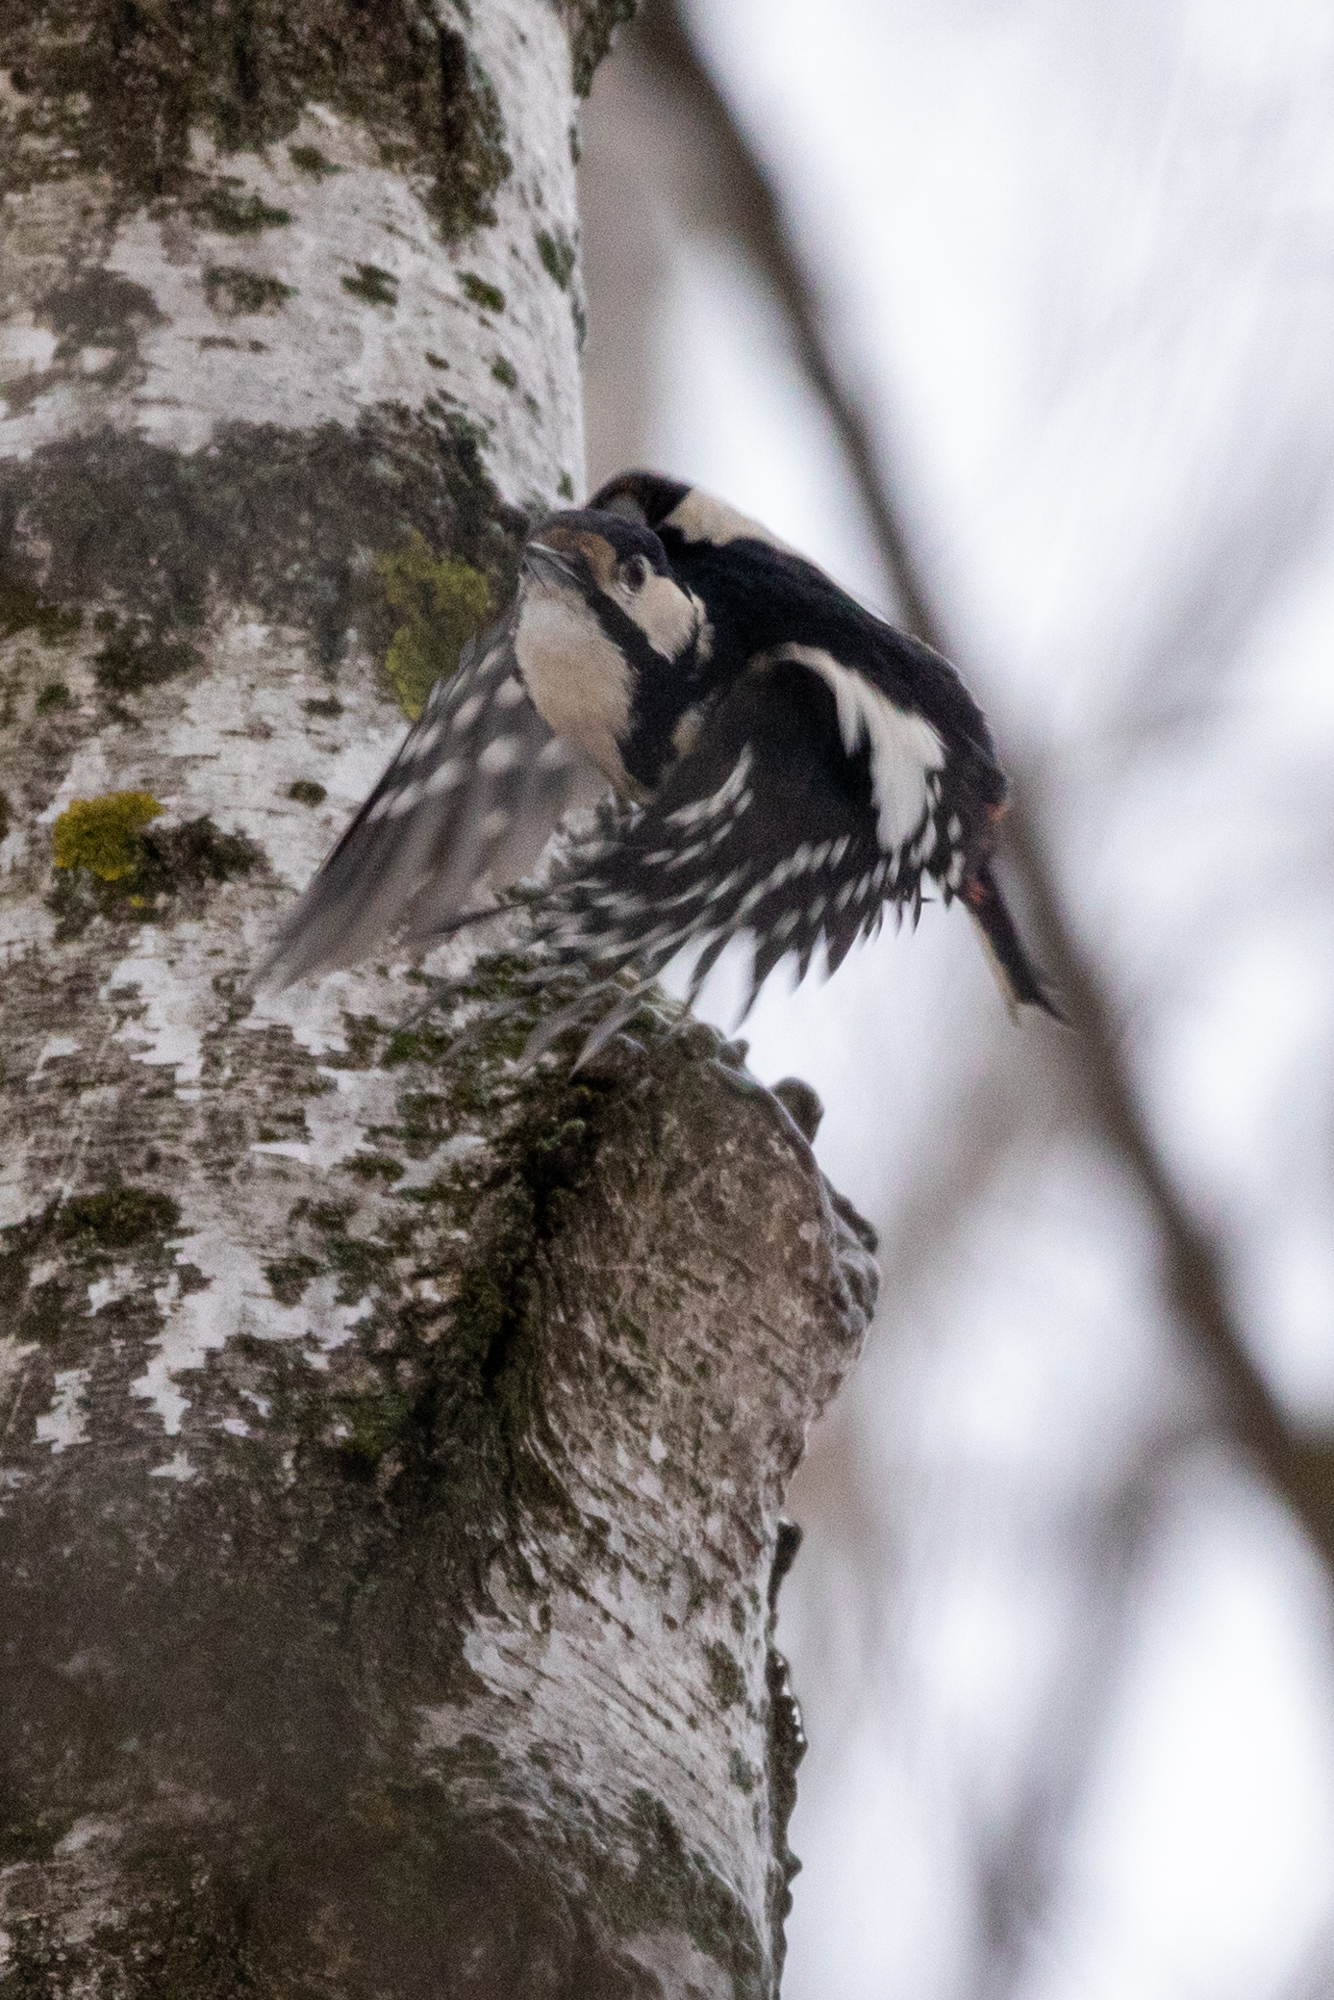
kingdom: Animalia
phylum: Chordata
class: Aves
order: Piciformes
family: Picidae
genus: Dendrocopos
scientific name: Dendrocopos major
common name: Great spotted woodpecker
